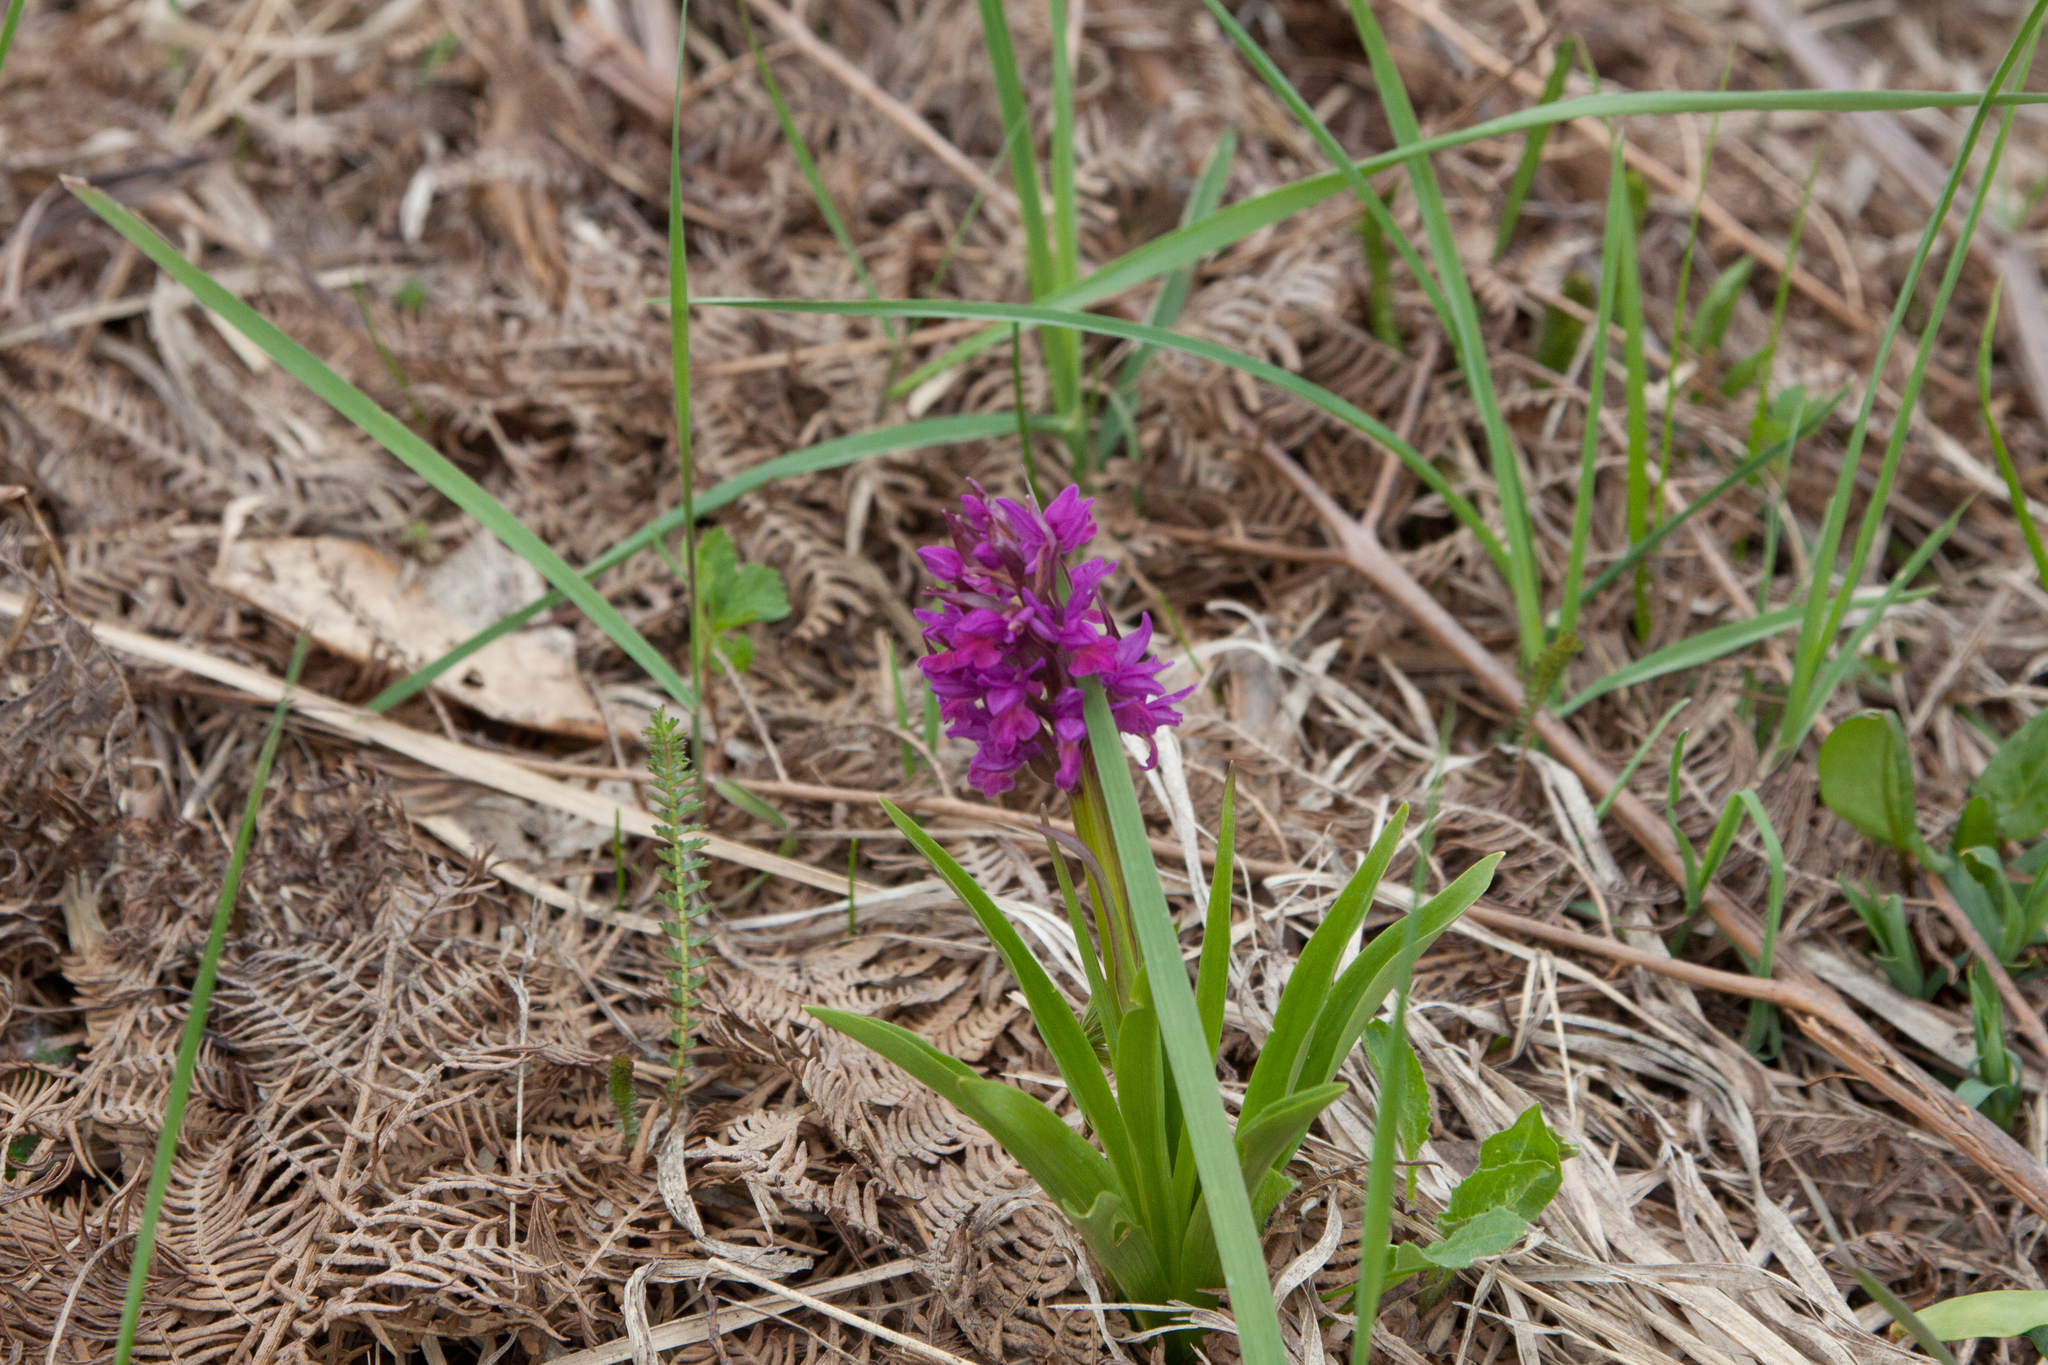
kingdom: Plantae
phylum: Tracheophyta
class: Liliopsida
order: Asparagales
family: Orchidaceae
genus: Dactylorhiza
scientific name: Dactylorhiza romana
